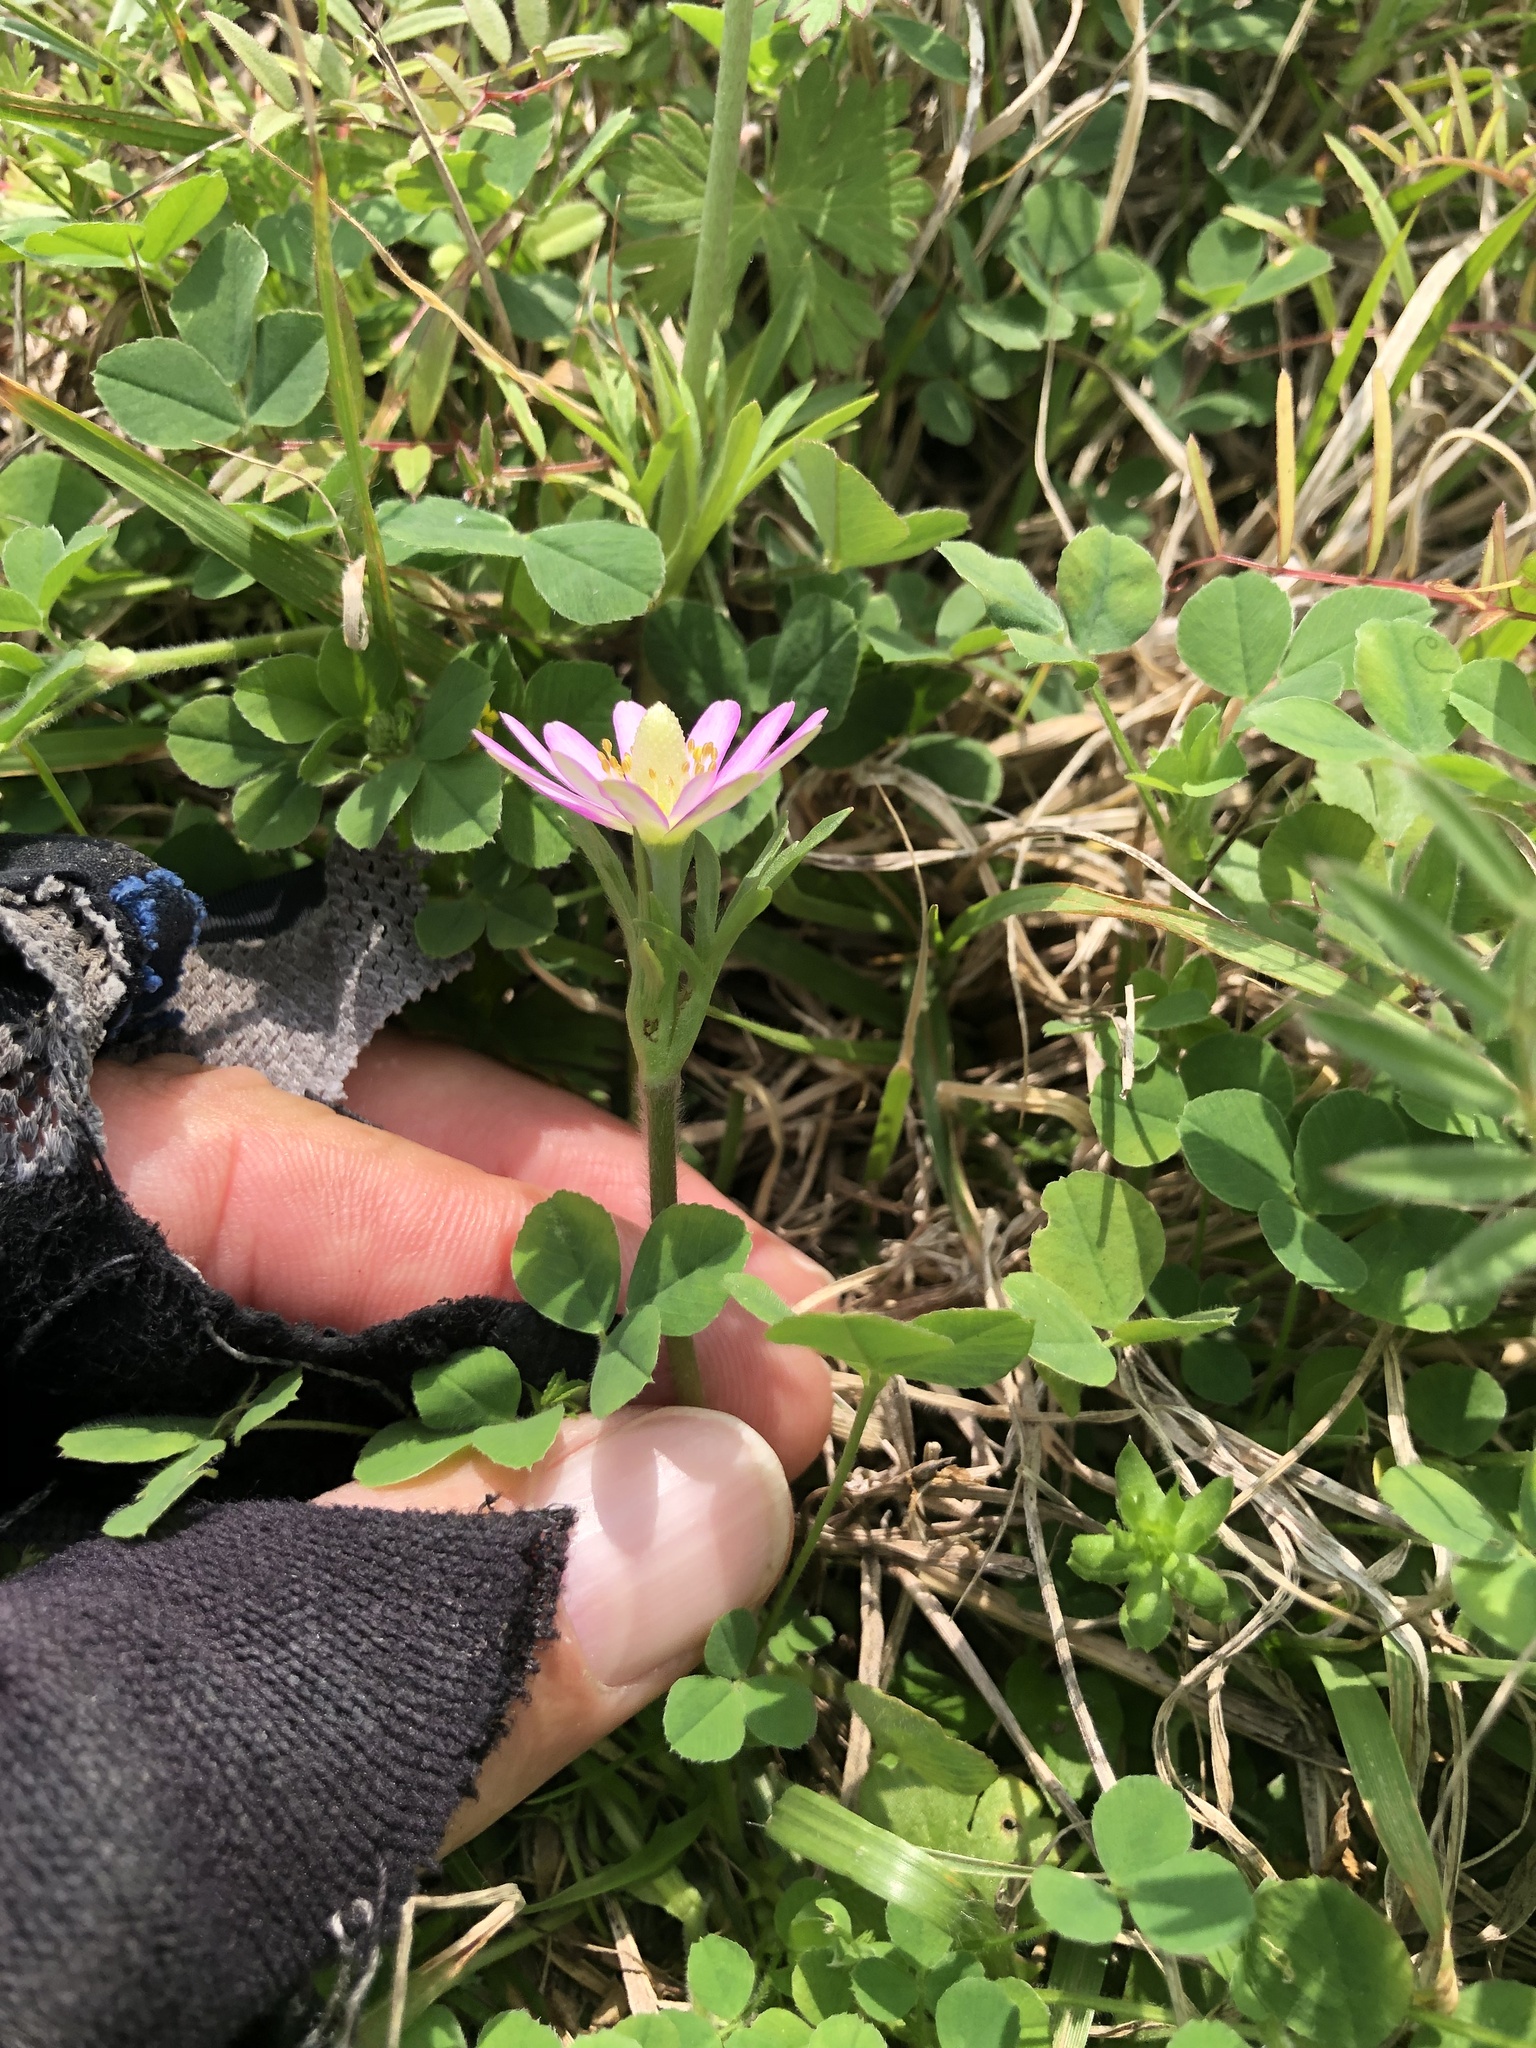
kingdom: Plantae
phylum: Tracheophyta
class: Magnoliopsida
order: Ranunculales
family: Ranunculaceae
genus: Anemone
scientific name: Anemone berlandieri
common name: Ten-petal anemone
